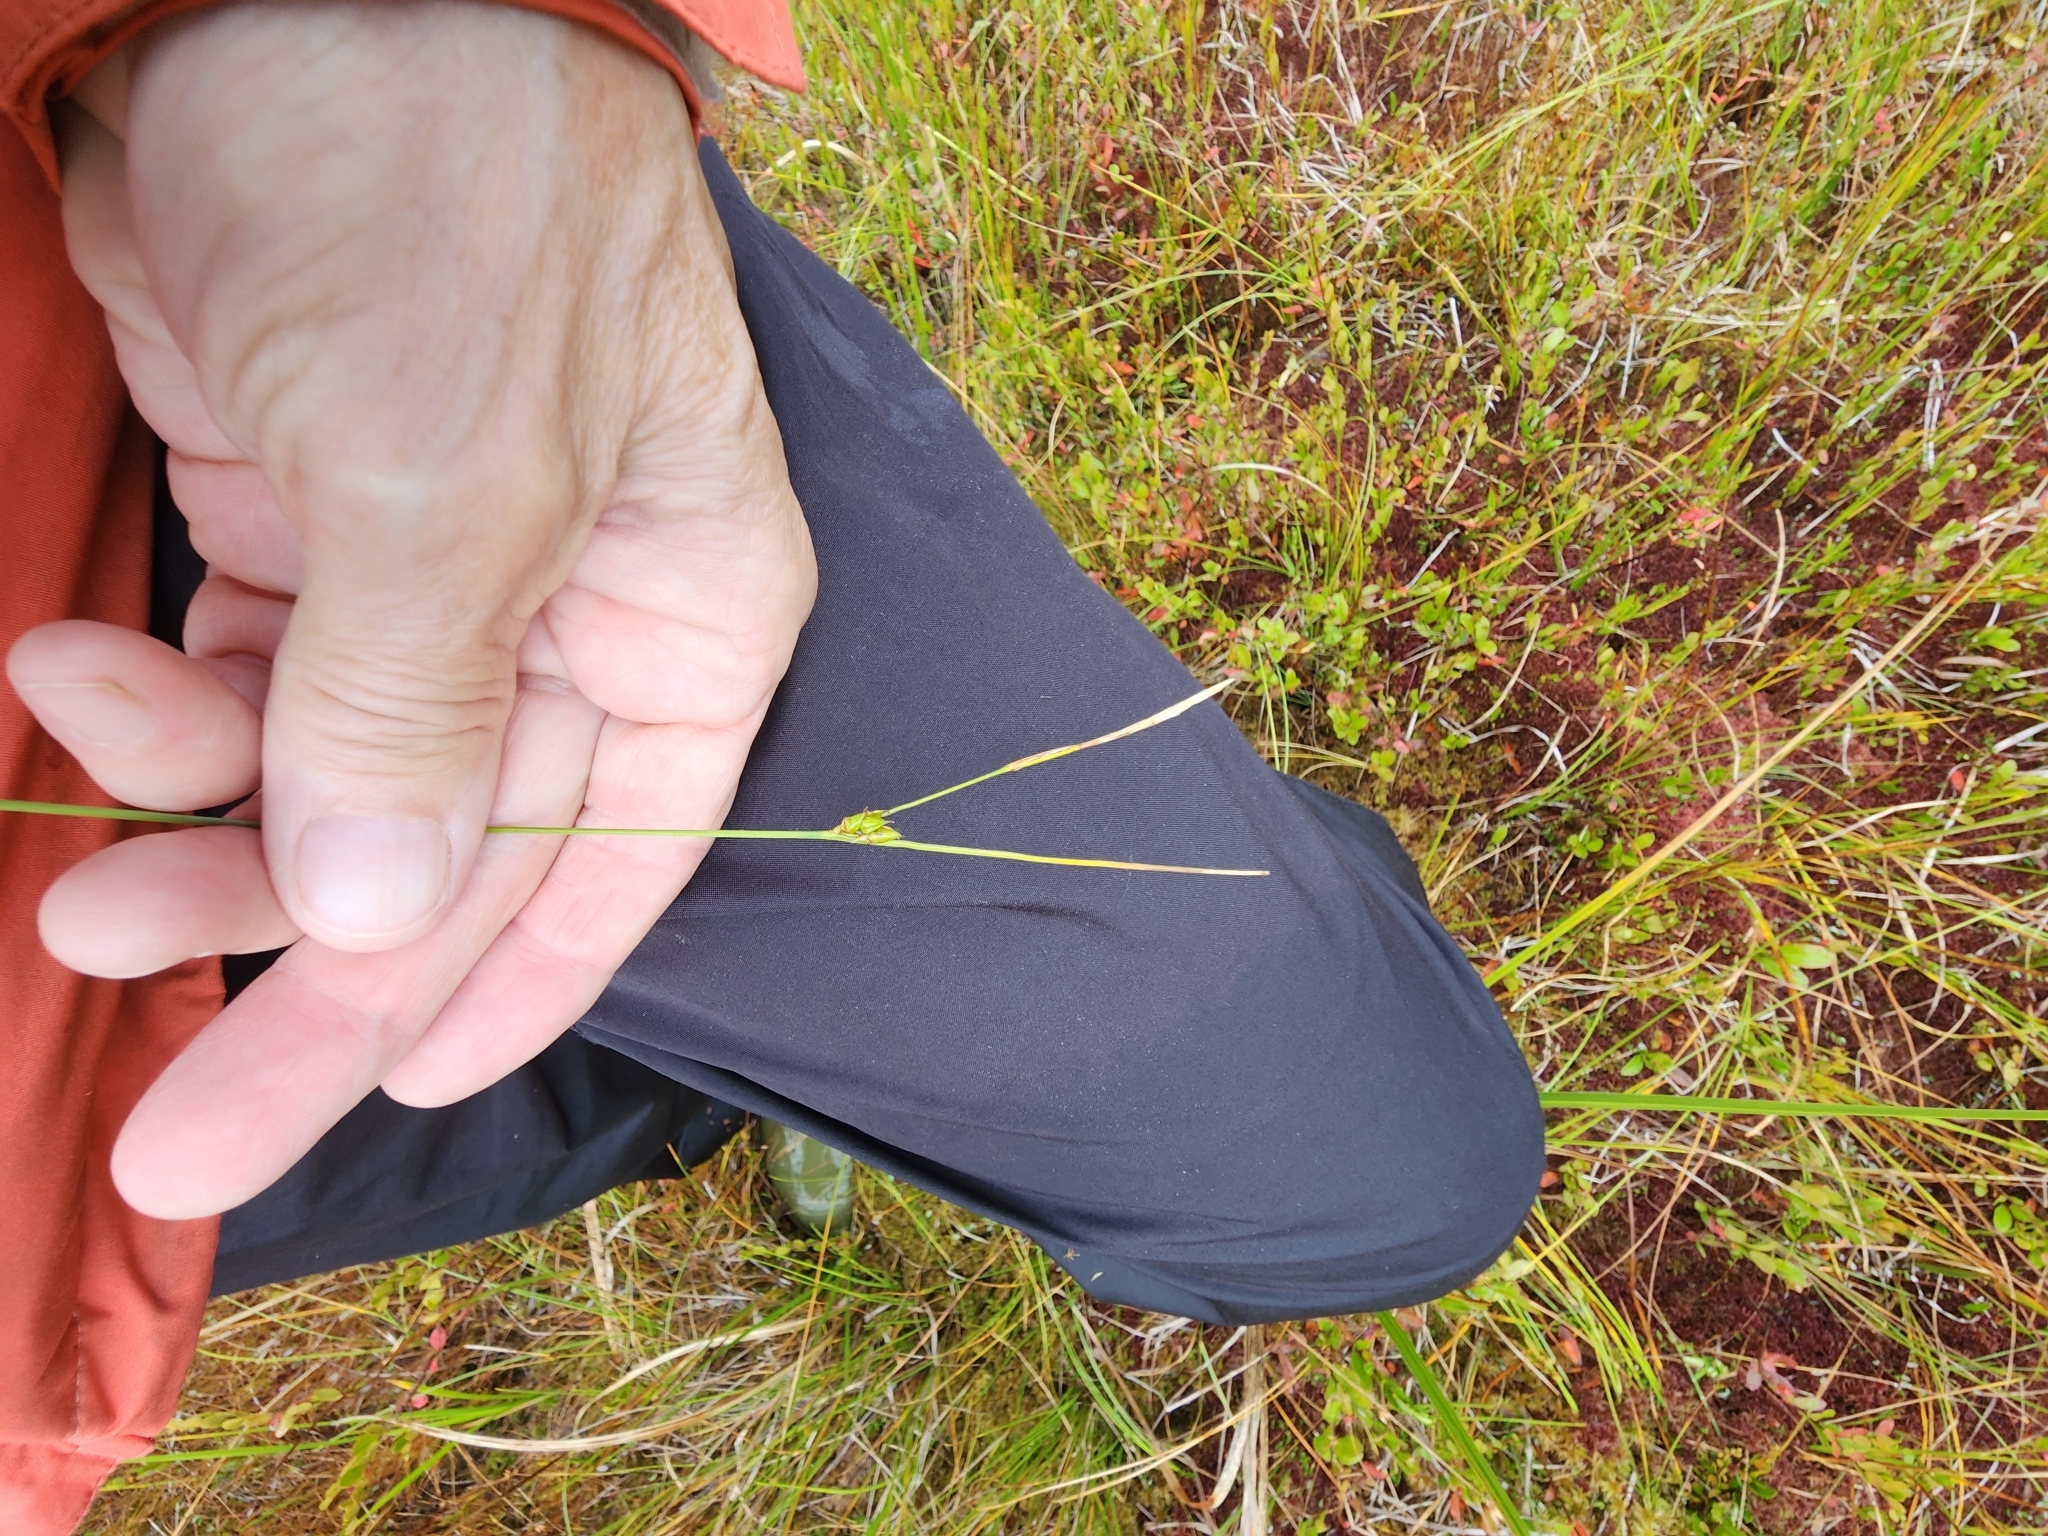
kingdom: Plantae
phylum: Tracheophyta
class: Liliopsida
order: Poales
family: Cyperaceae
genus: Carex
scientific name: Carex oligosperma
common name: Few-seed sedge
